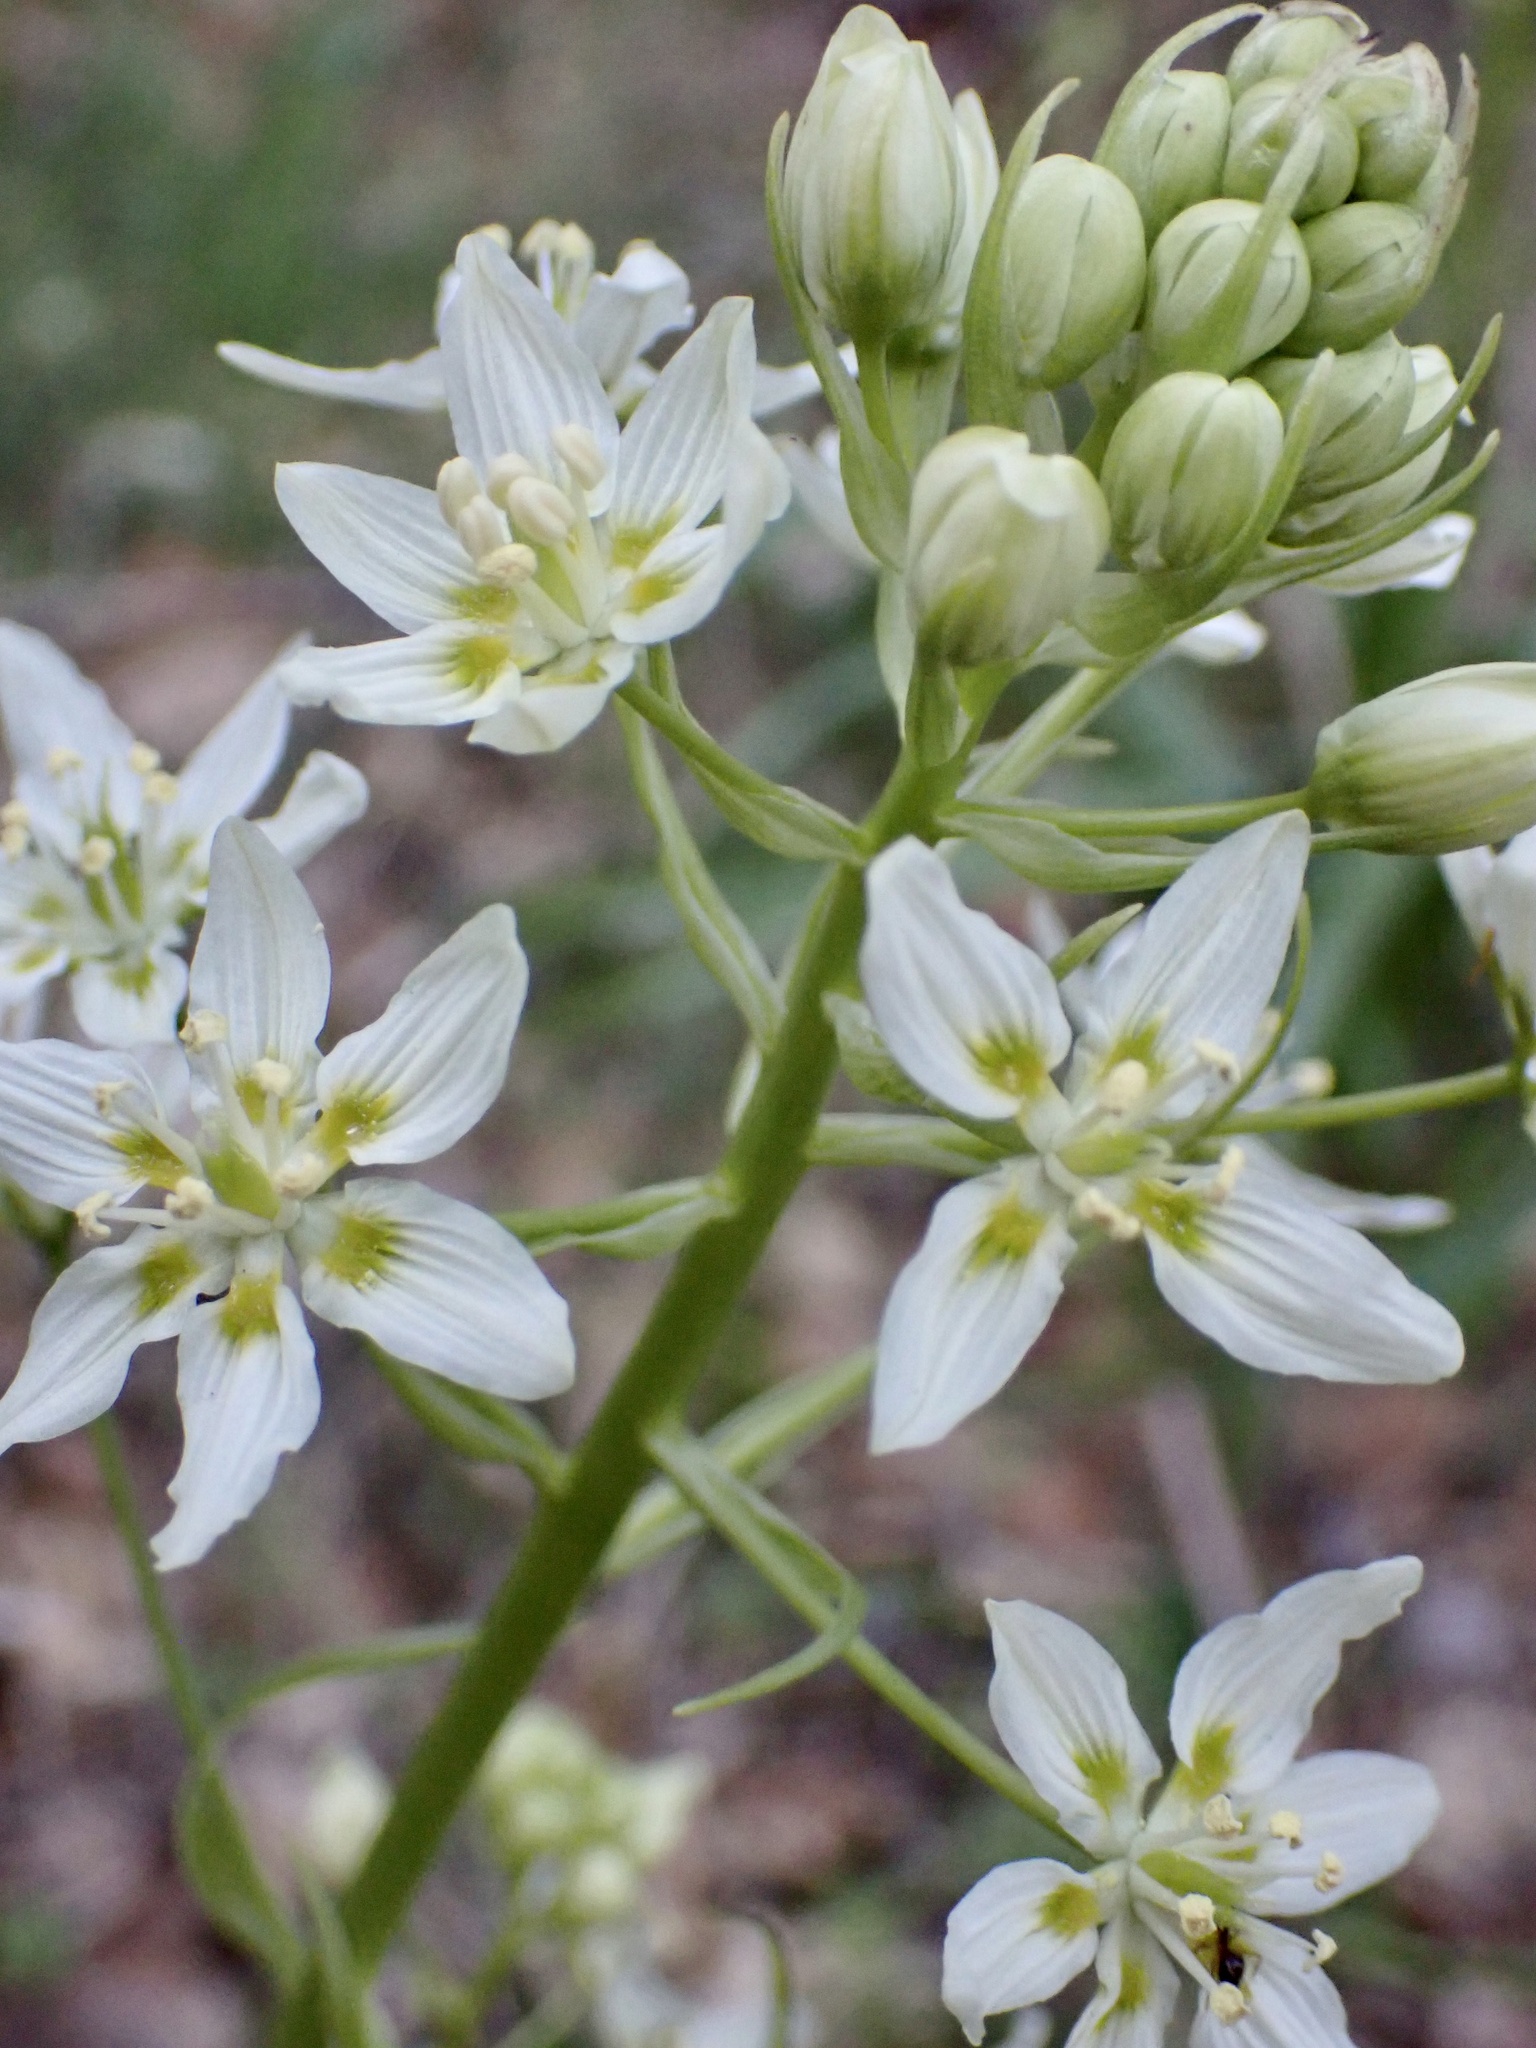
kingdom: Plantae
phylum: Tracheophyta
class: Liliopsida
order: Liliales
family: Melanthiaceae
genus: Toxicoscordion
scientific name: Toxicoscordion fremontii
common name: Fremont's death camas
